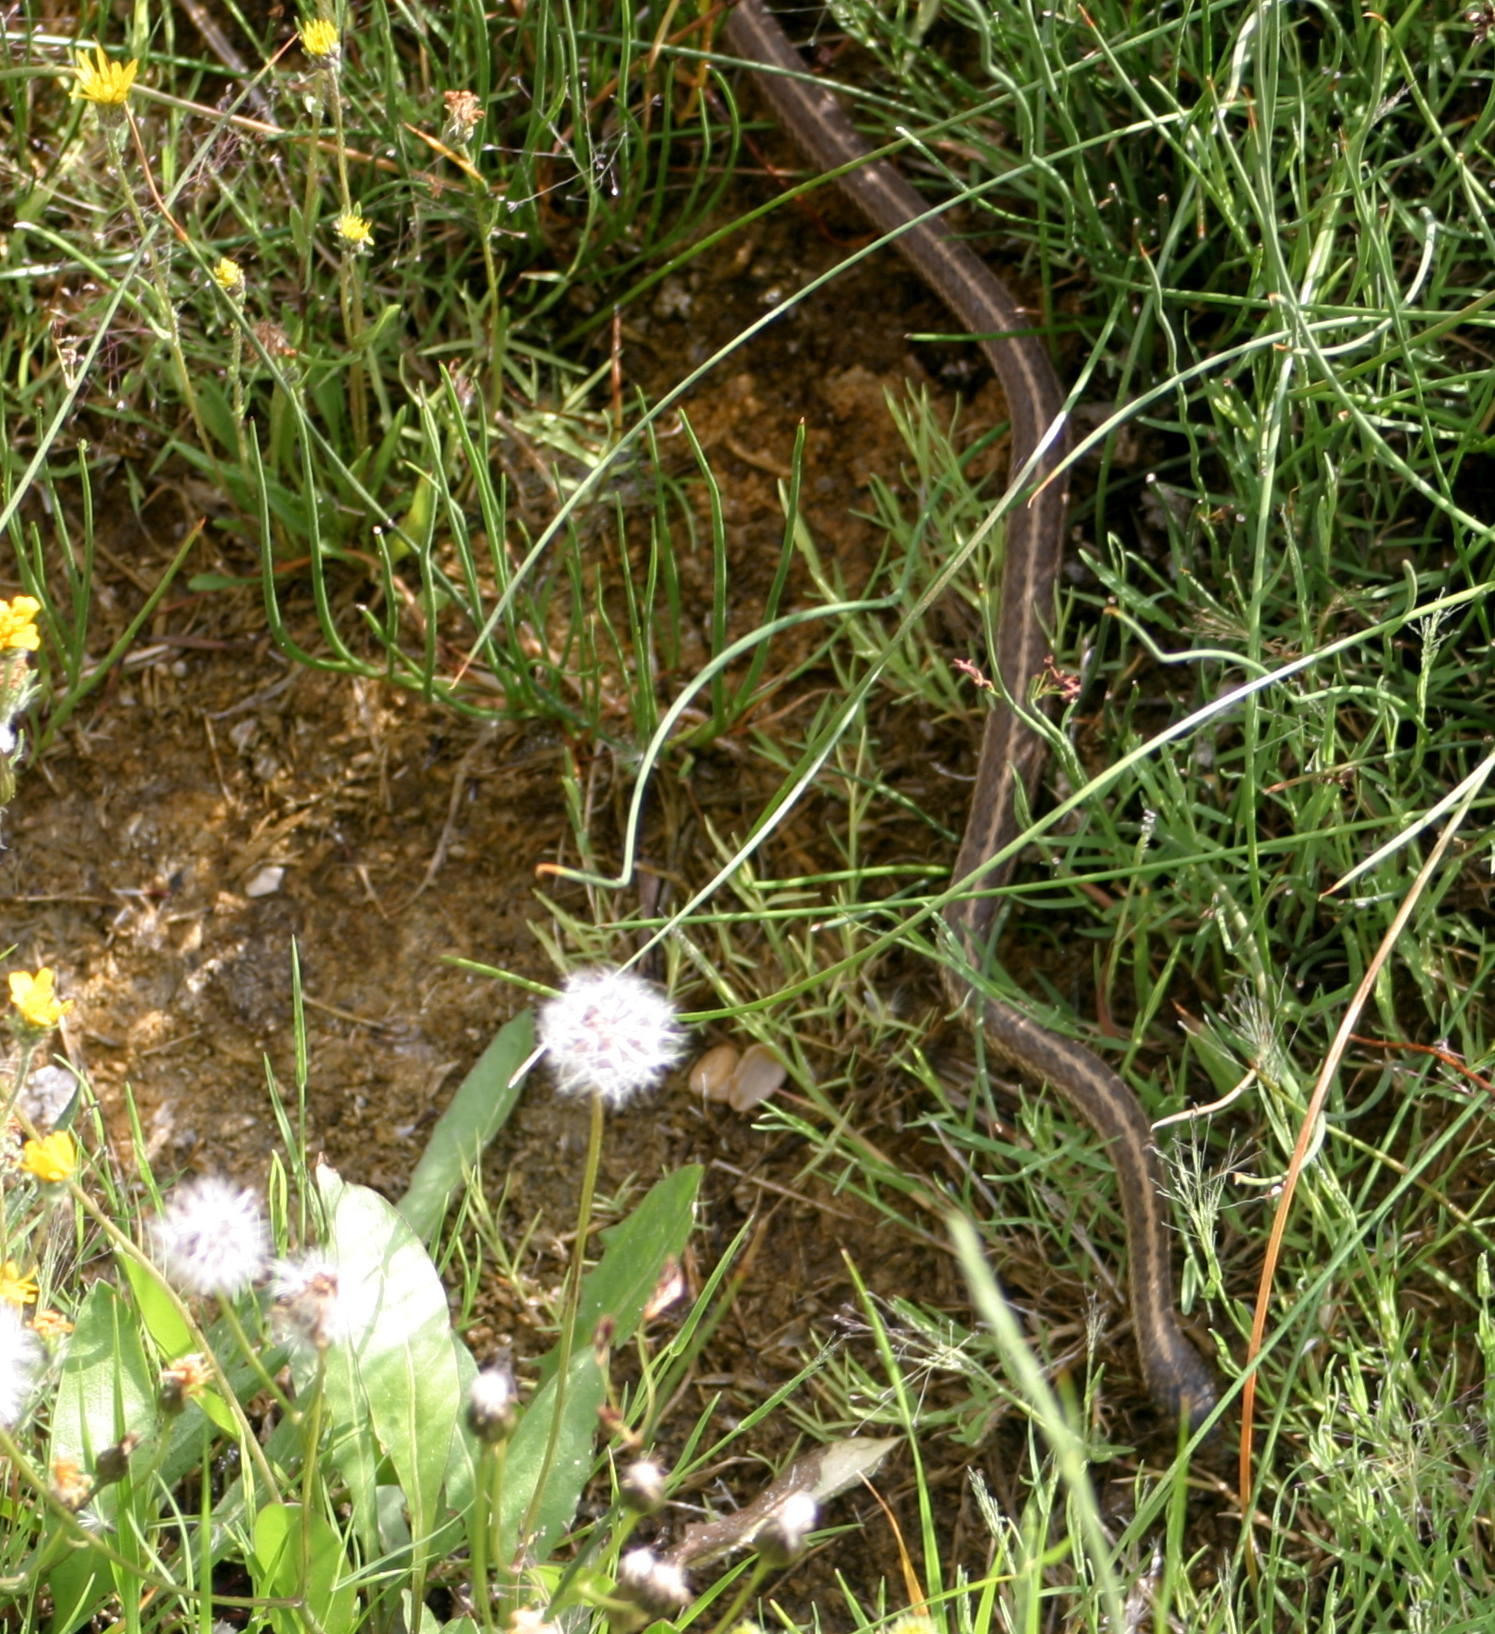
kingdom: Animalia
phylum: Chordata
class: Squamata
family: Colubridae
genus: Thamnophis
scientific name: Thamnophis elegans
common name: Western terrestrial garter snake
